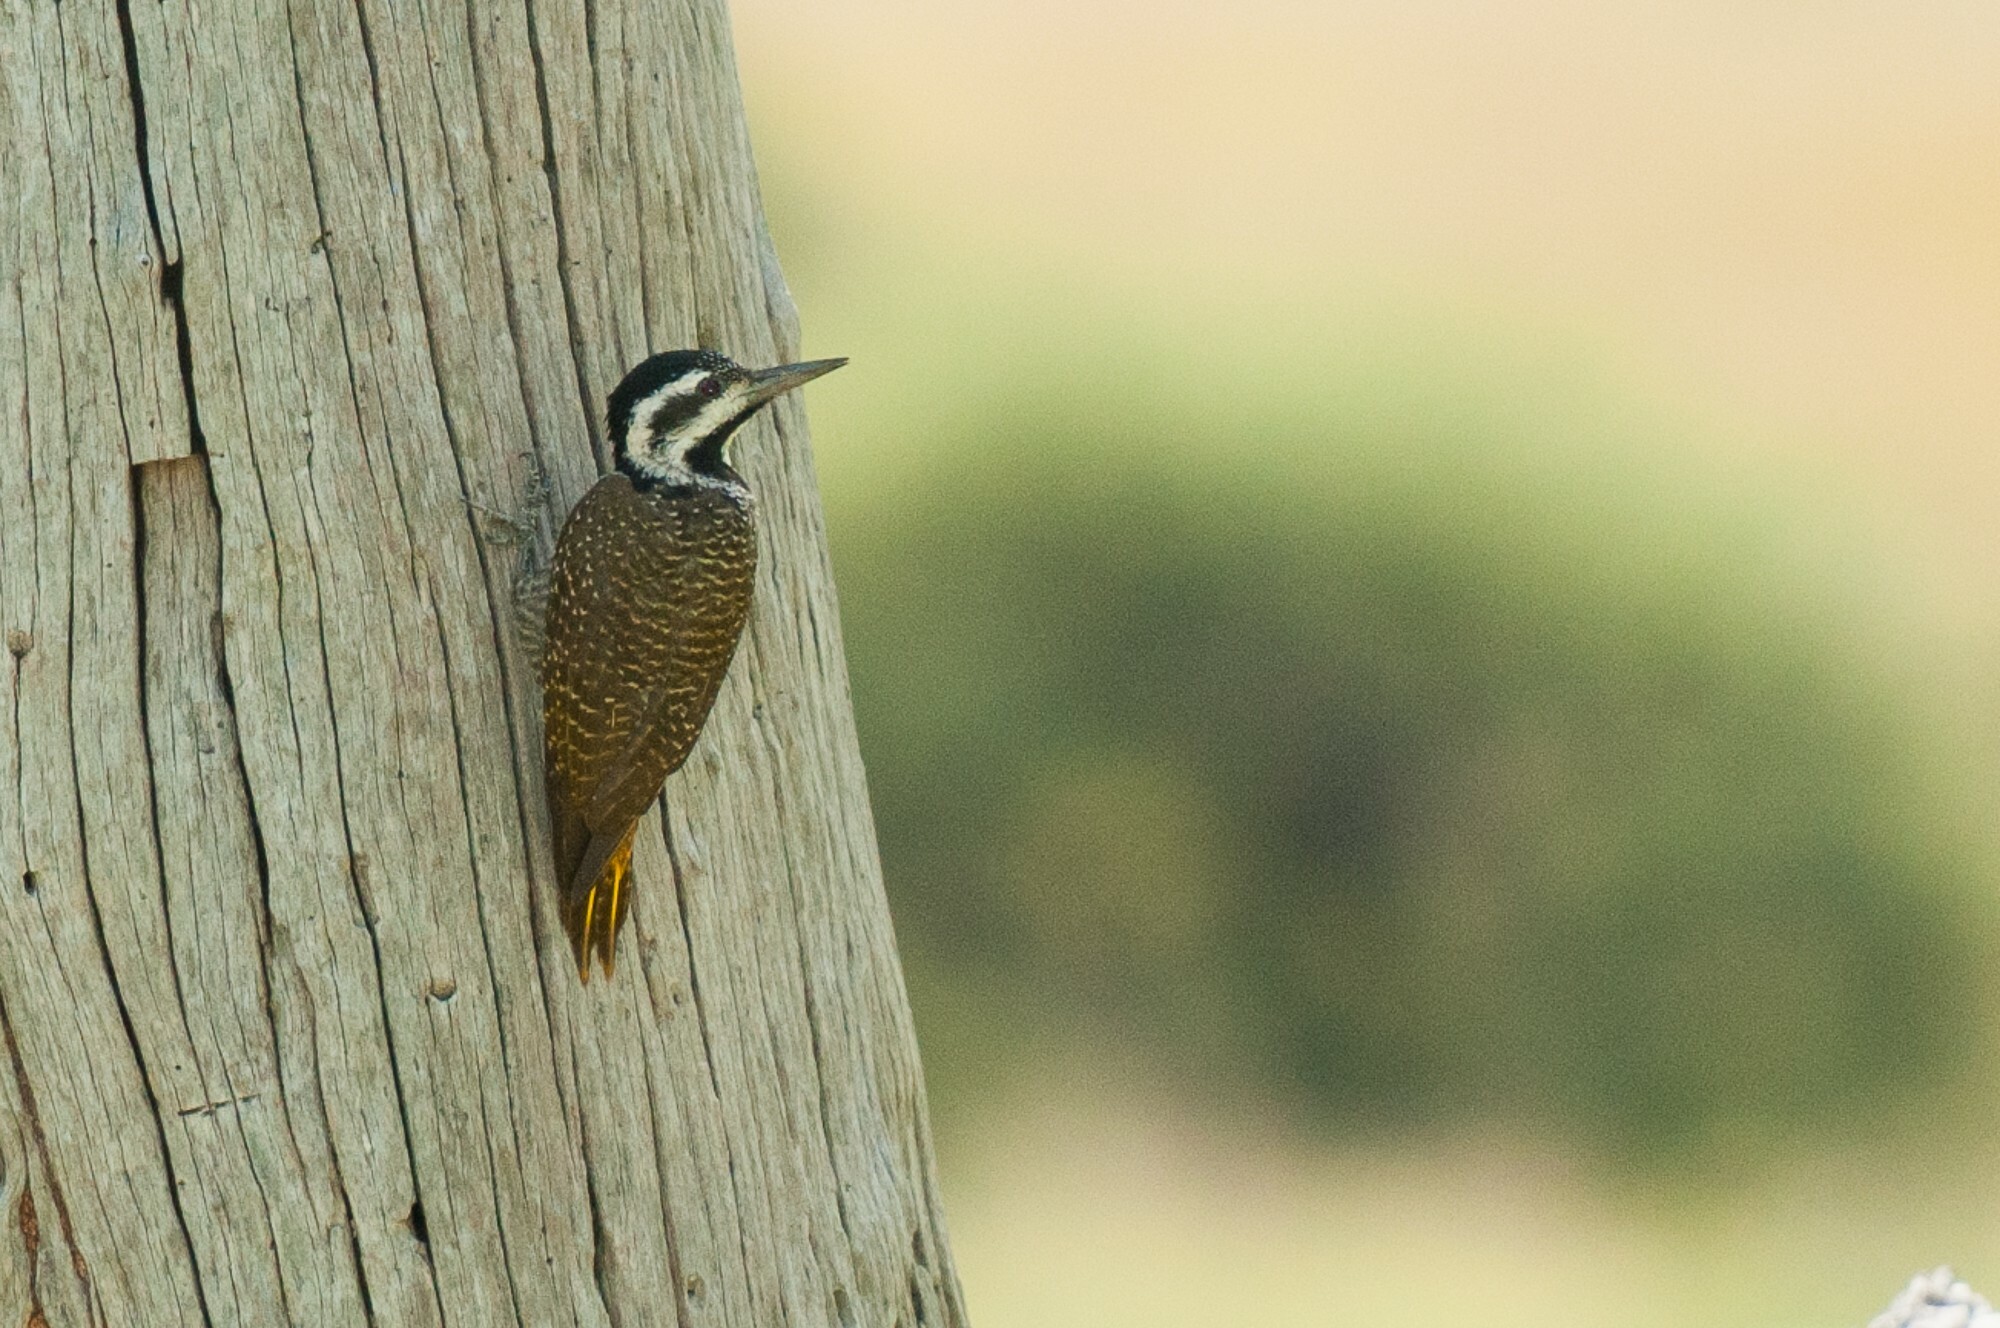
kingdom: Animalia
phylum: Chordata
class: Aves
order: Piciformes
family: Picidae
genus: Chloropicus
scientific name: Chloropicus namaquus
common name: Bearded woodpecker
